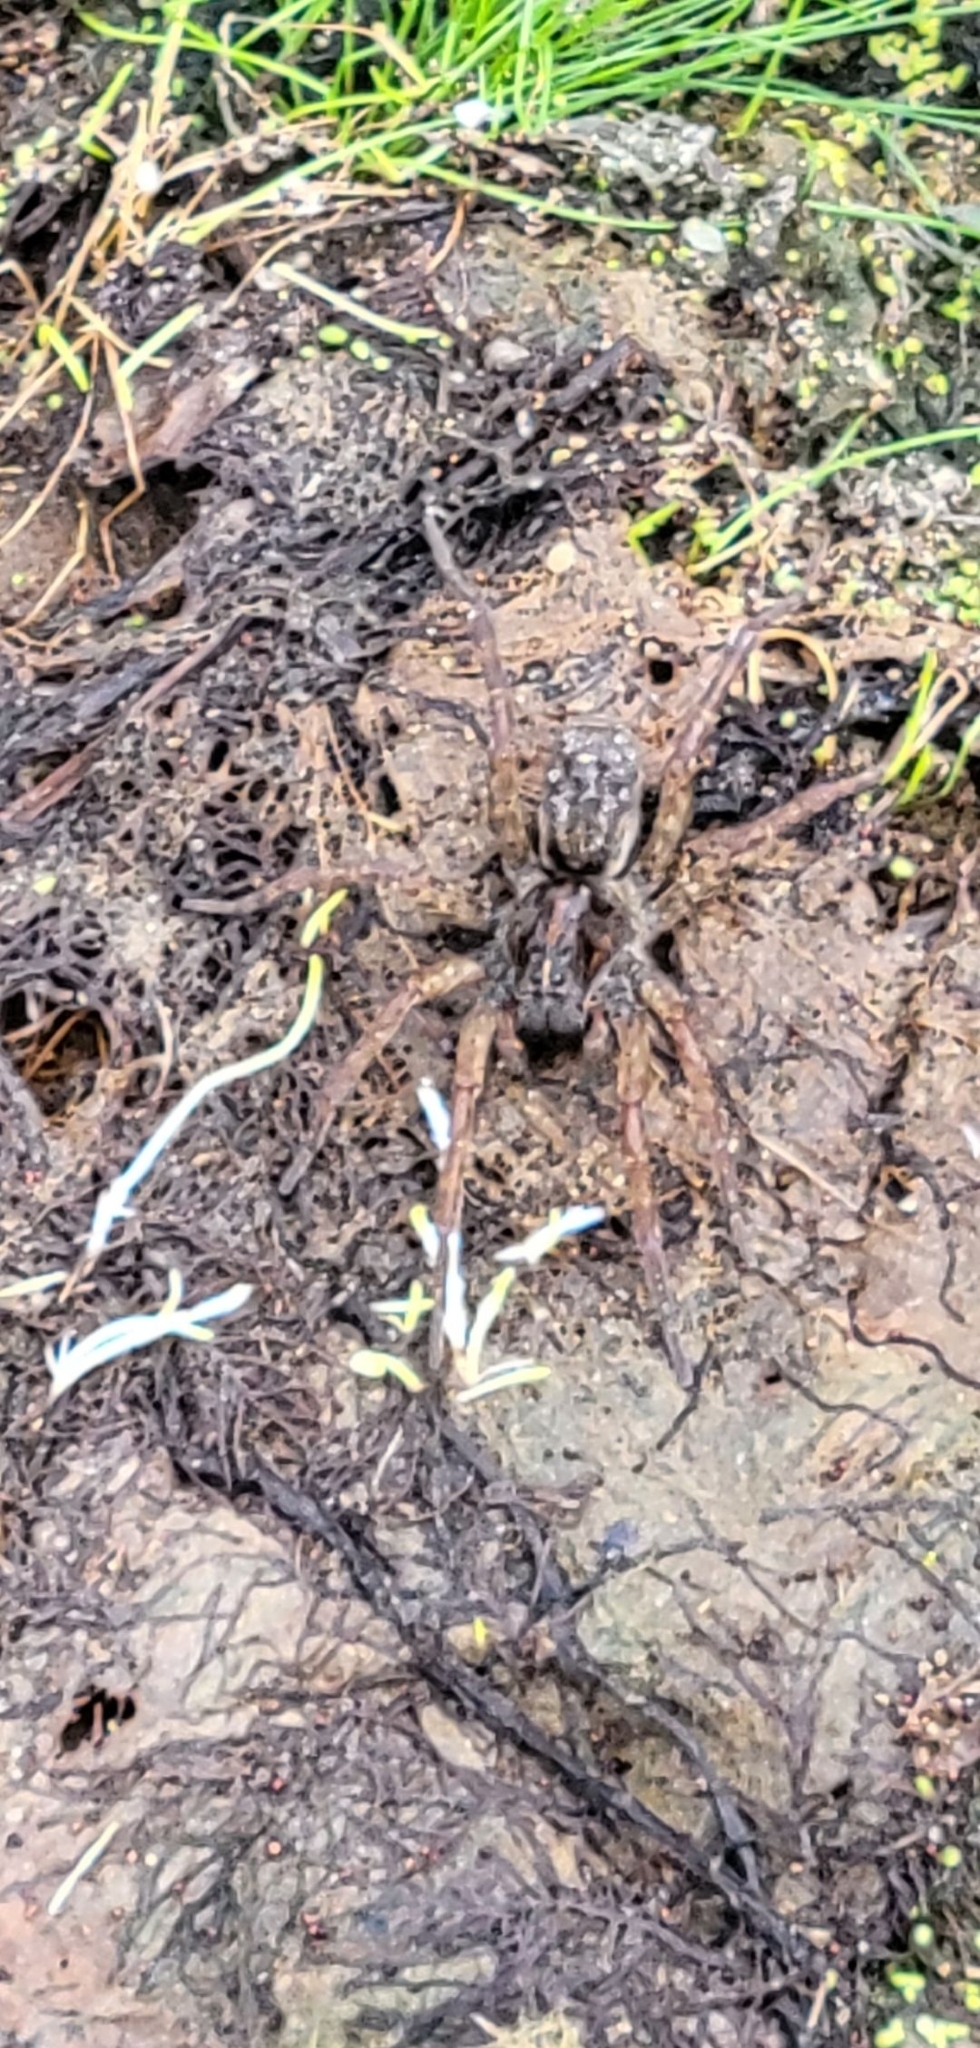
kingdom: Animalia
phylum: Arthropoda
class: Arachnida
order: Araneae
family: Lycosidae
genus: Tigrosa
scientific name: Tigrosa helluo
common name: Wetland giant wolf spider
